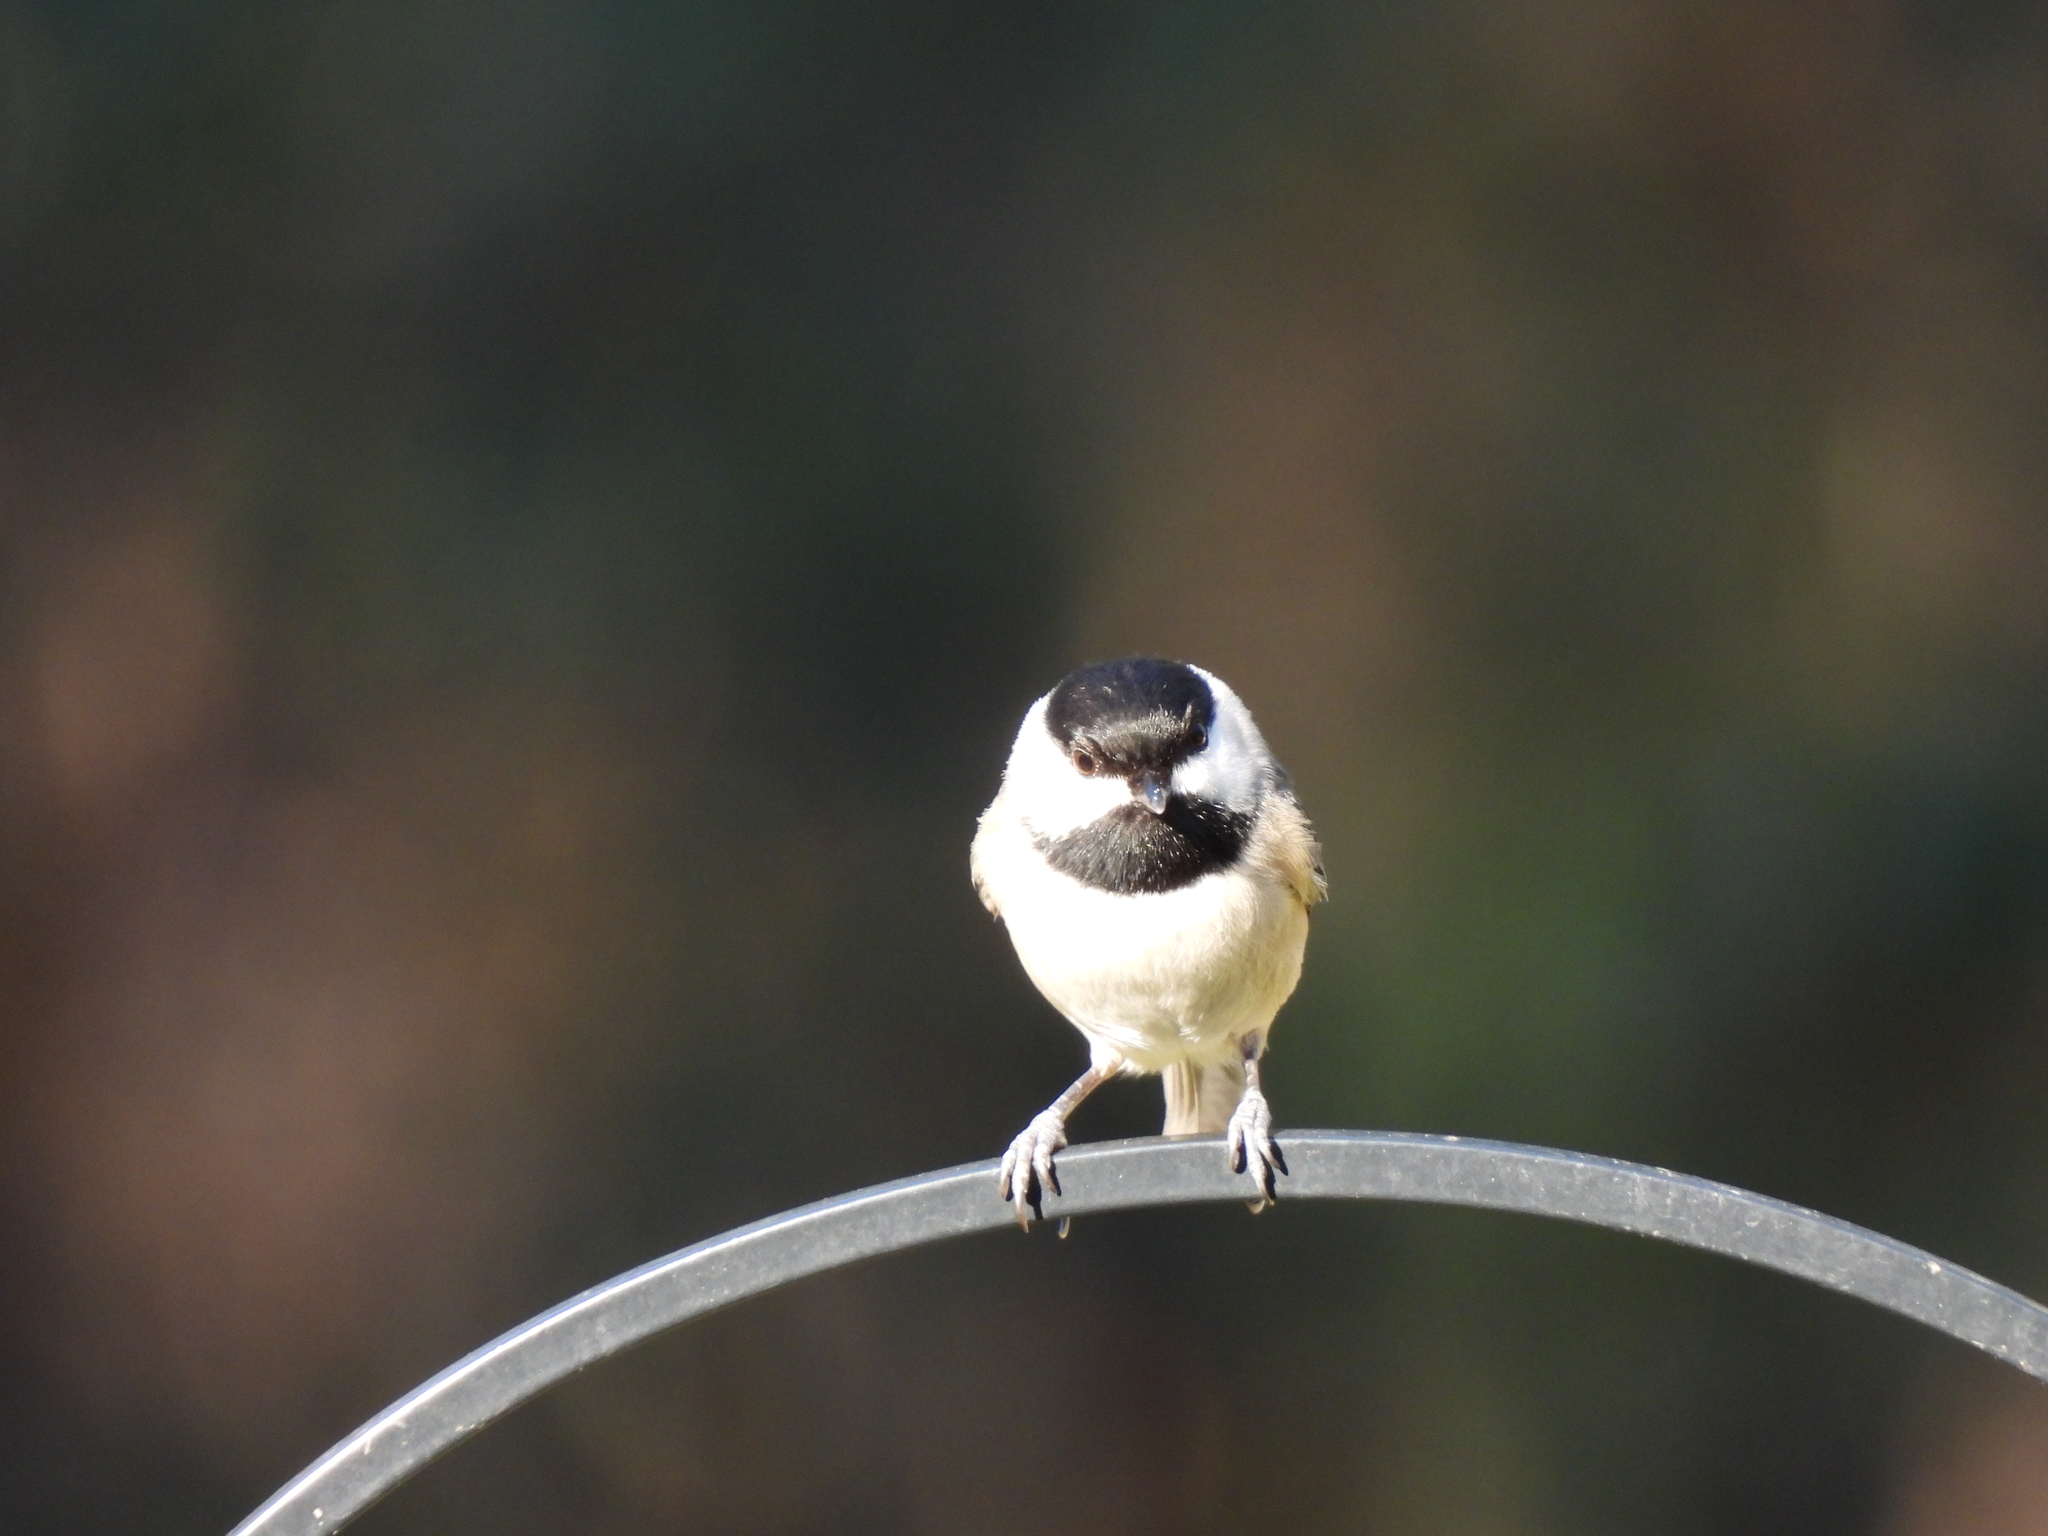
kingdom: Animalia
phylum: Chordata
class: Aves
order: Passeriformes
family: Paridae
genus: Poecile
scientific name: Poecile carolinensis
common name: Carolina chickadee
